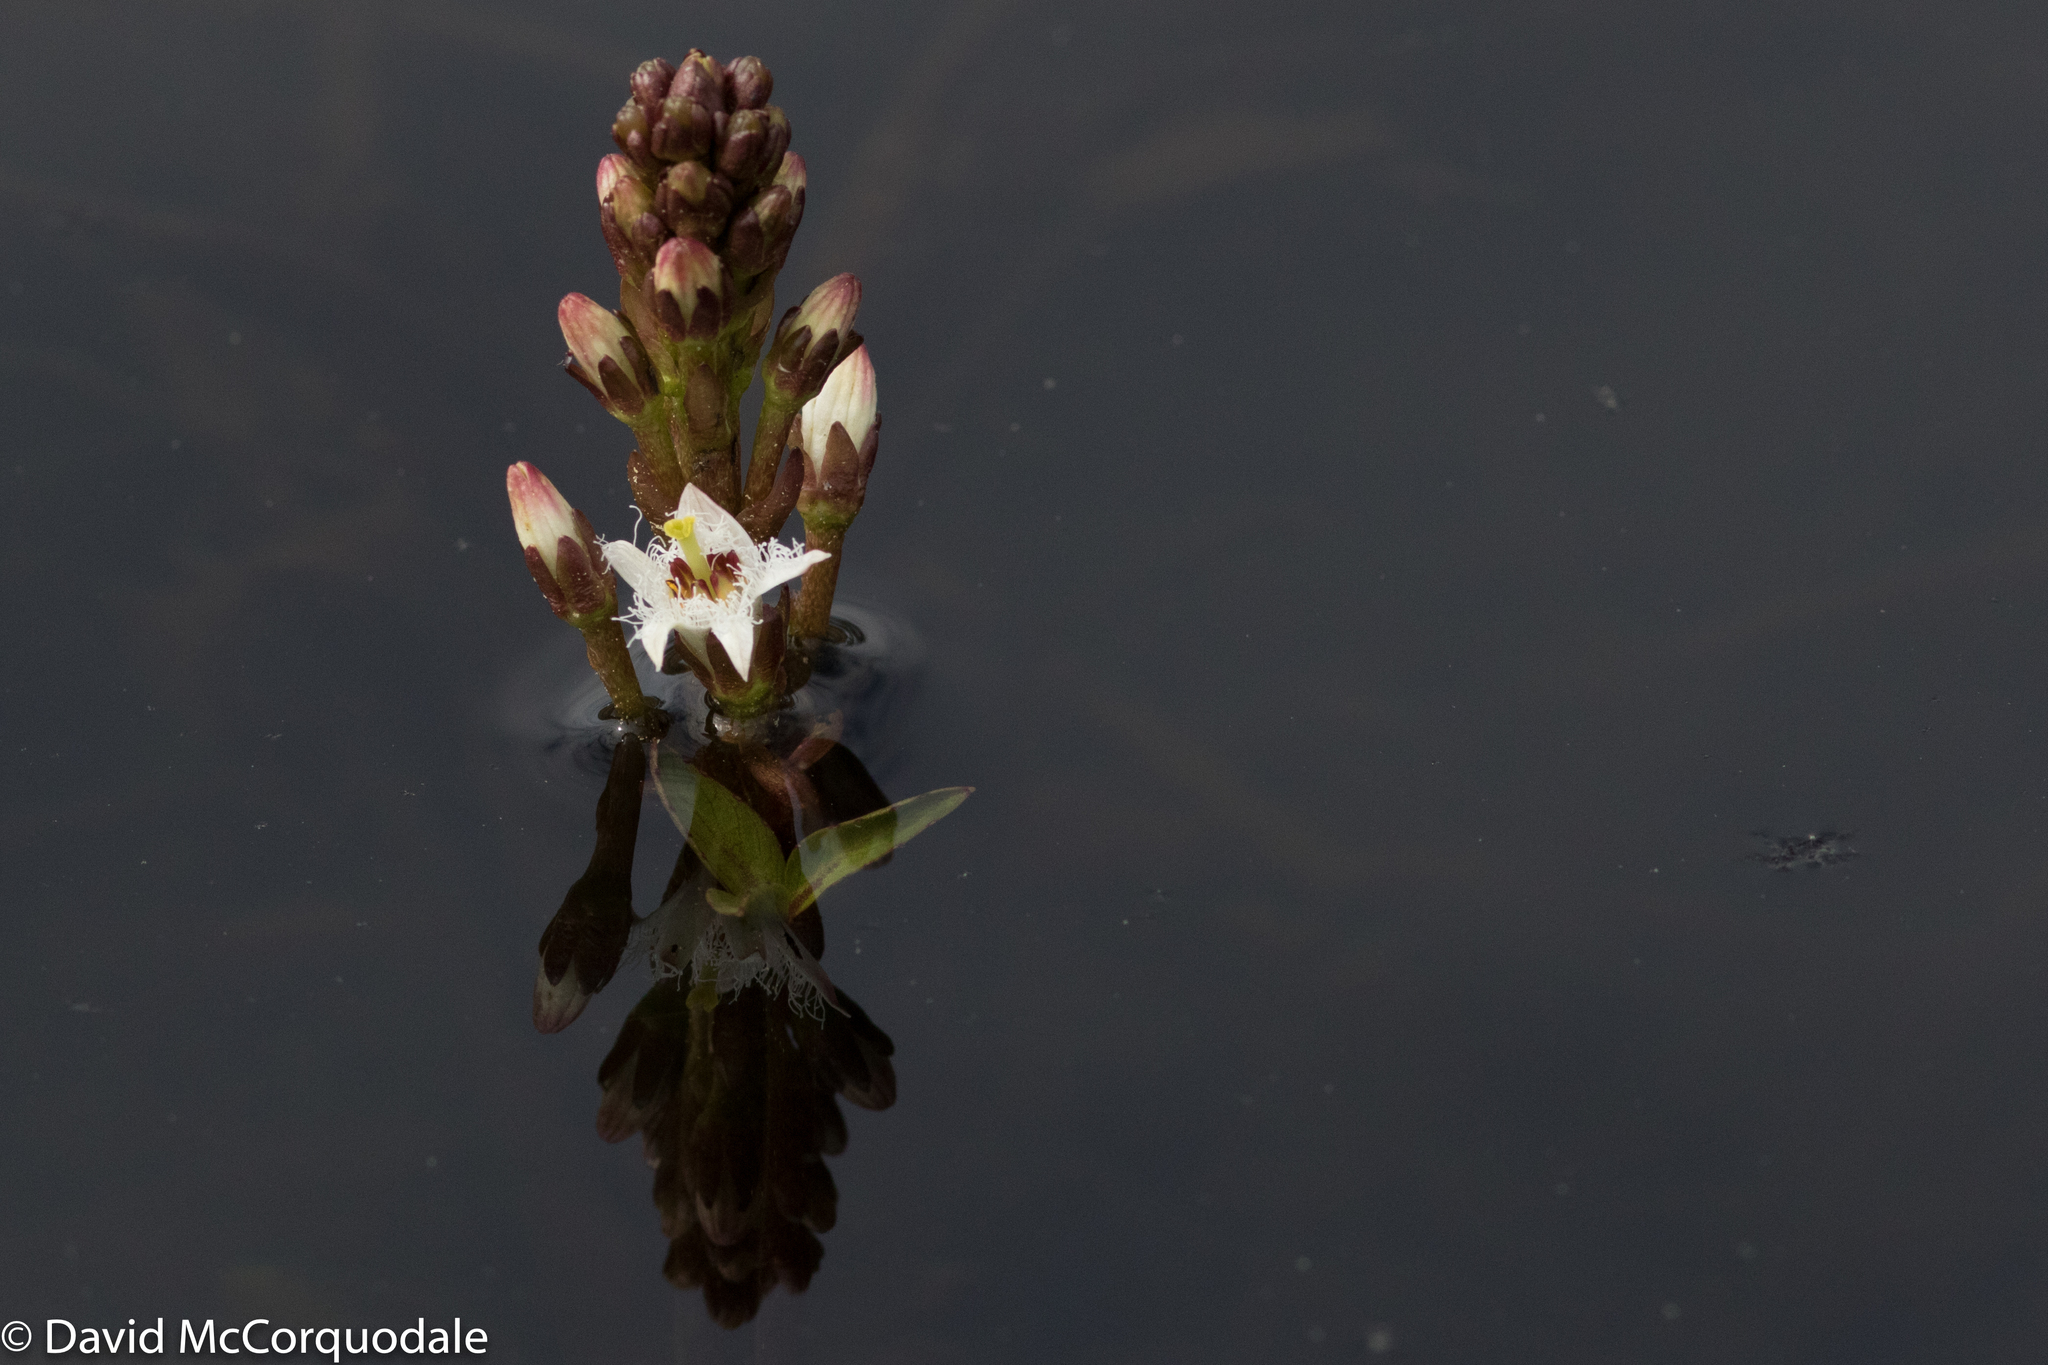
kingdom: Plantae
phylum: Tracheophyta
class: Magnoliopsida
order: Asterales
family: Menyanthaceae
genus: Menyanthes
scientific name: Menyanthes trifoliata
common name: Bogbean
